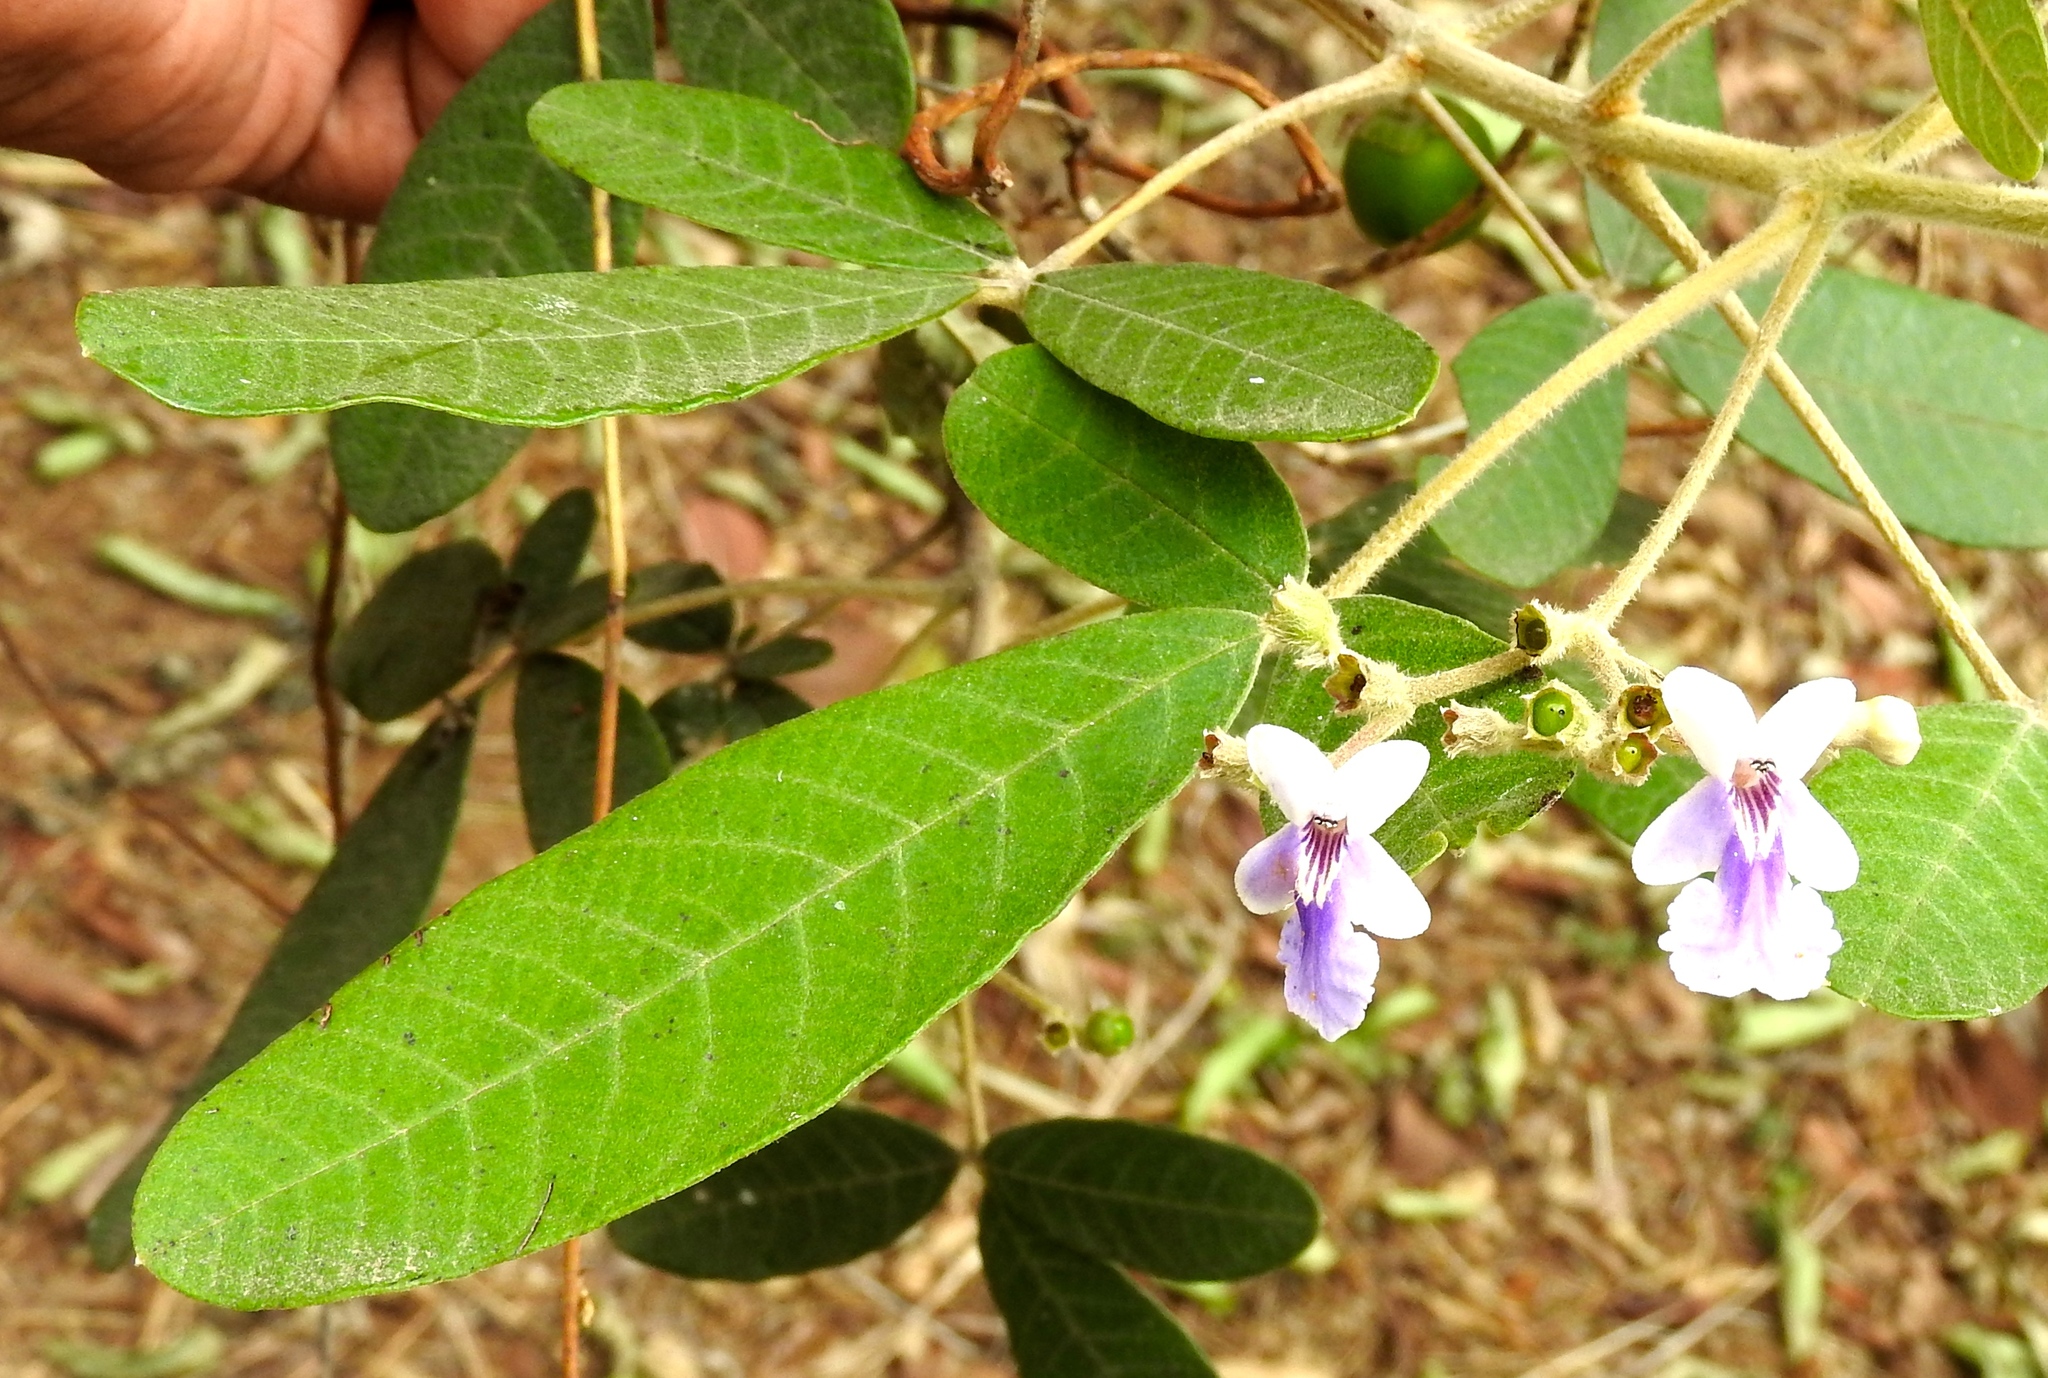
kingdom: Plantae
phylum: Tracheophyta
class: Magnoliopsida
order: Lamiales
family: Lamiaceae
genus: Vitex
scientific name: Vitex mollis
